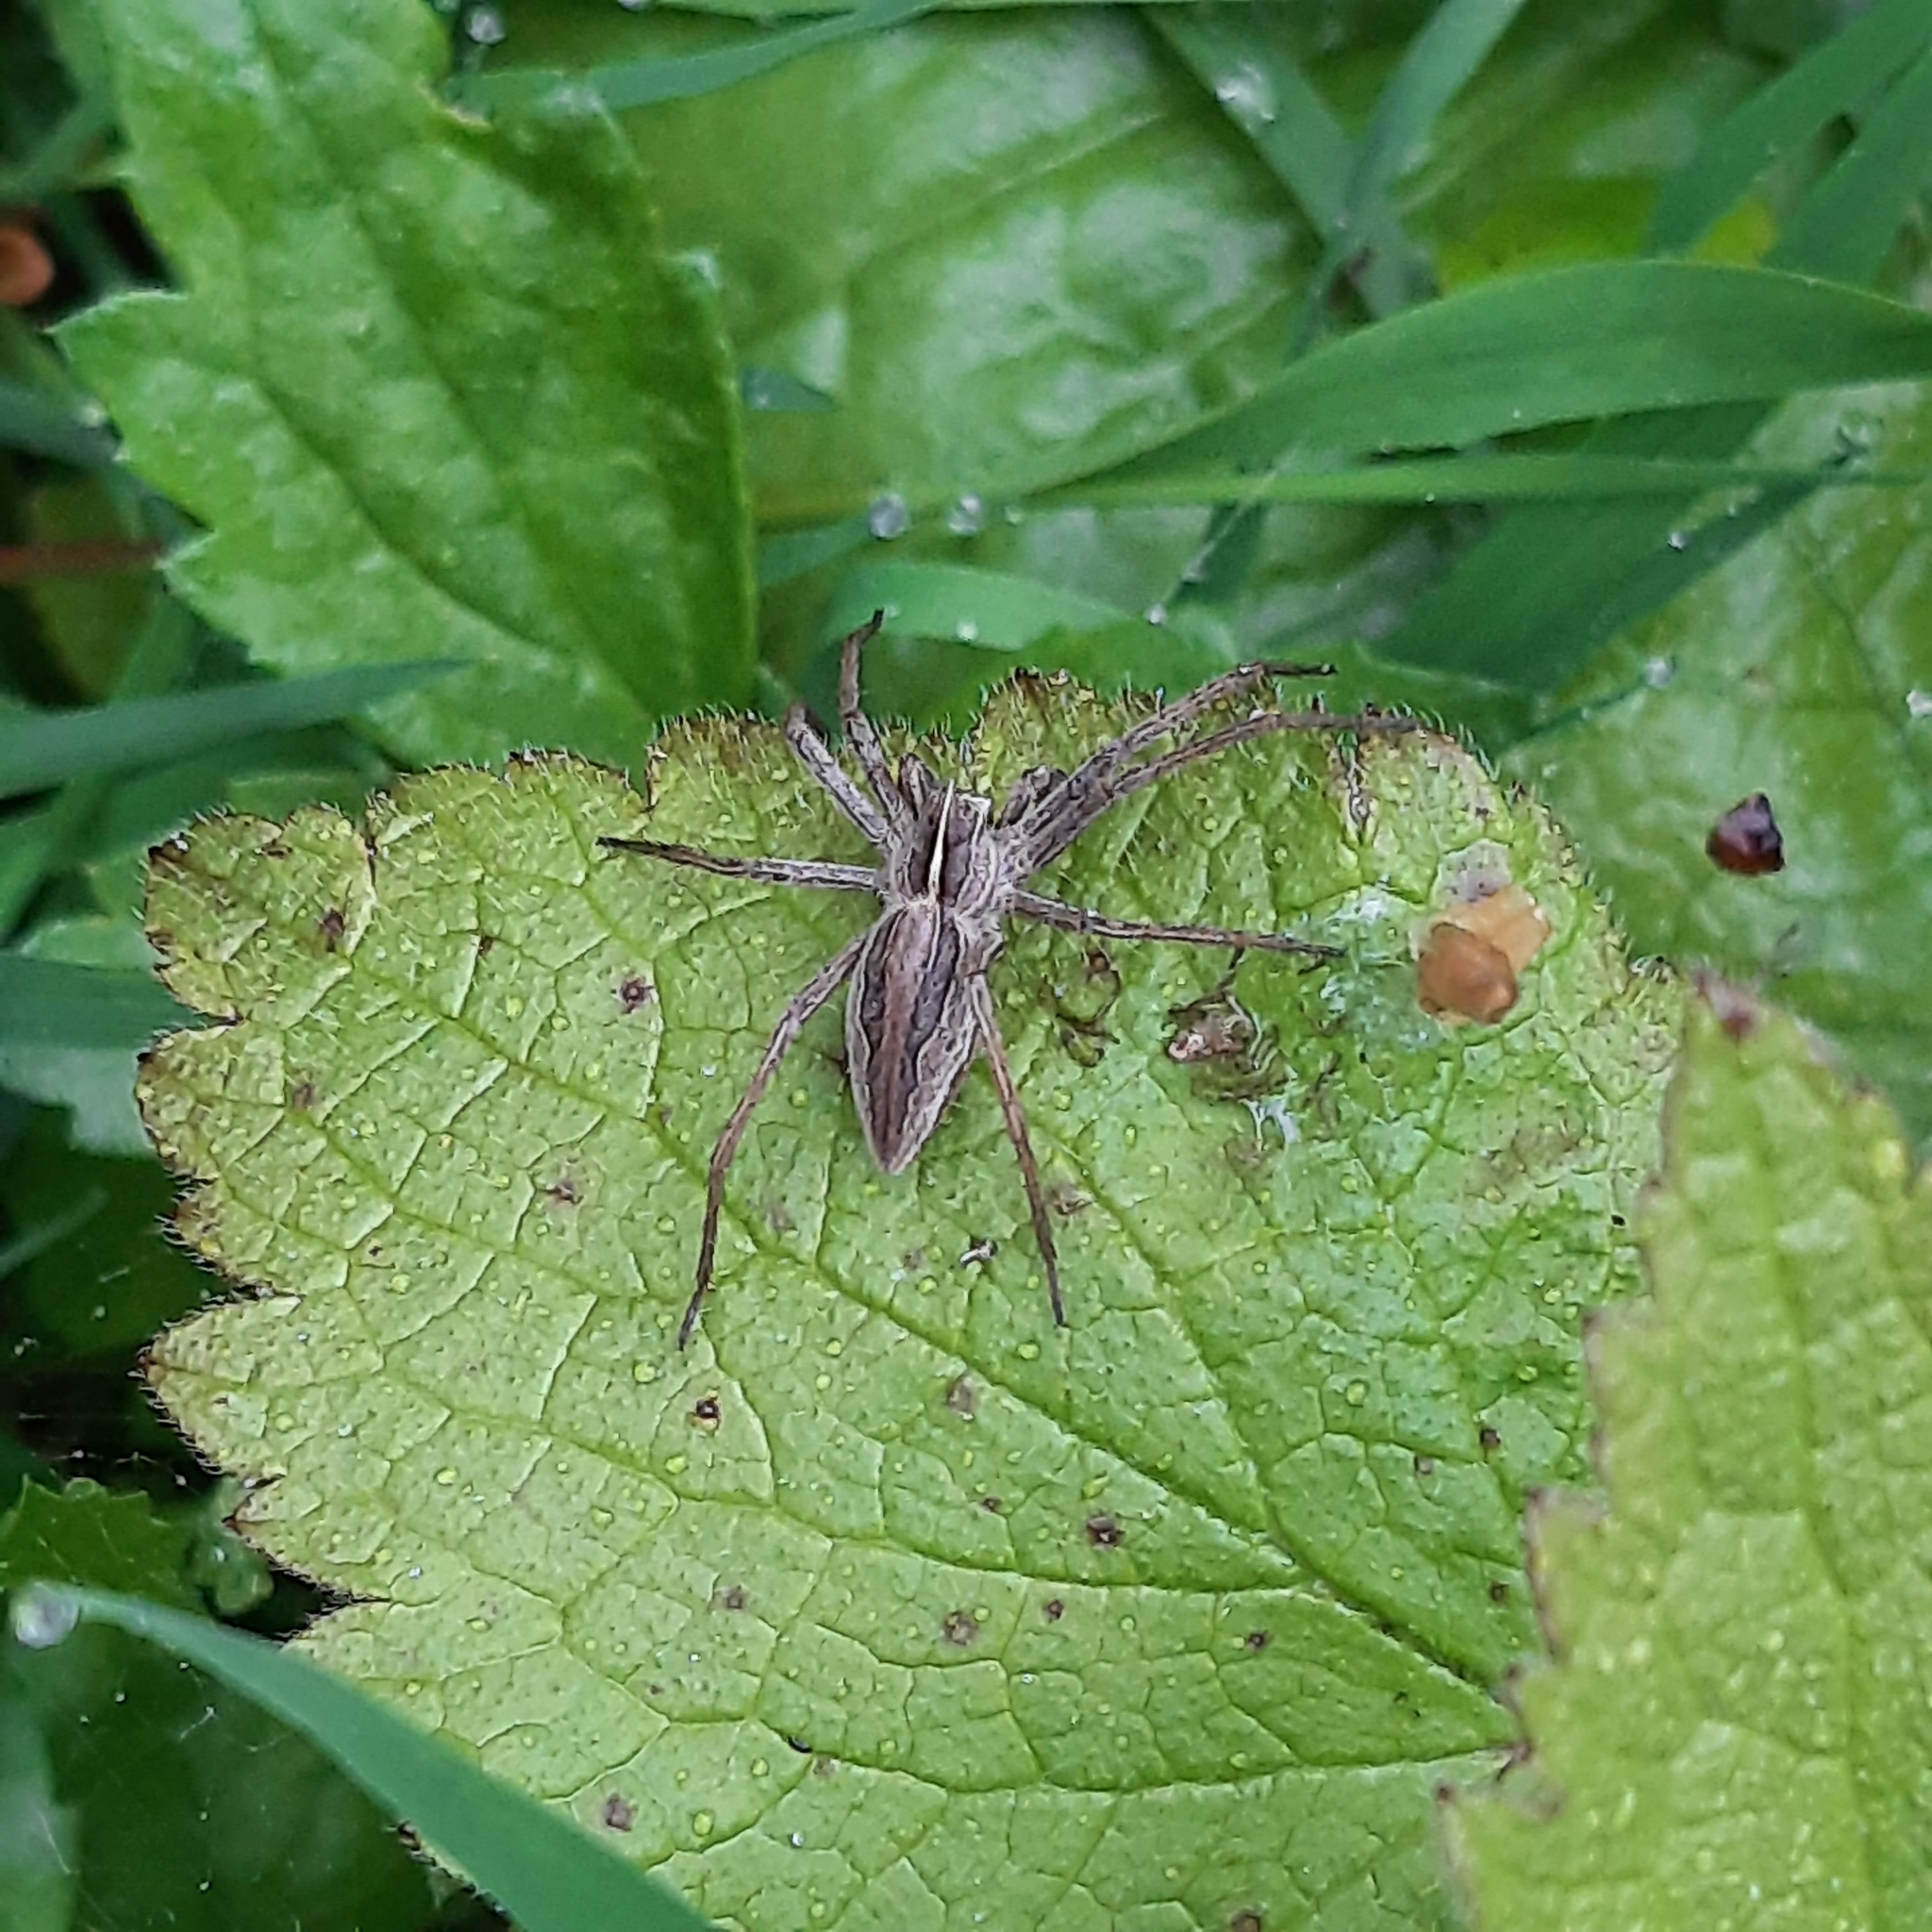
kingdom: Animalia
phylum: Arthropoda
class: Arachnida
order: Araneae
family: Pisauridae
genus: Pisaura
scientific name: Pisaura mirabilis
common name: Tent spider
